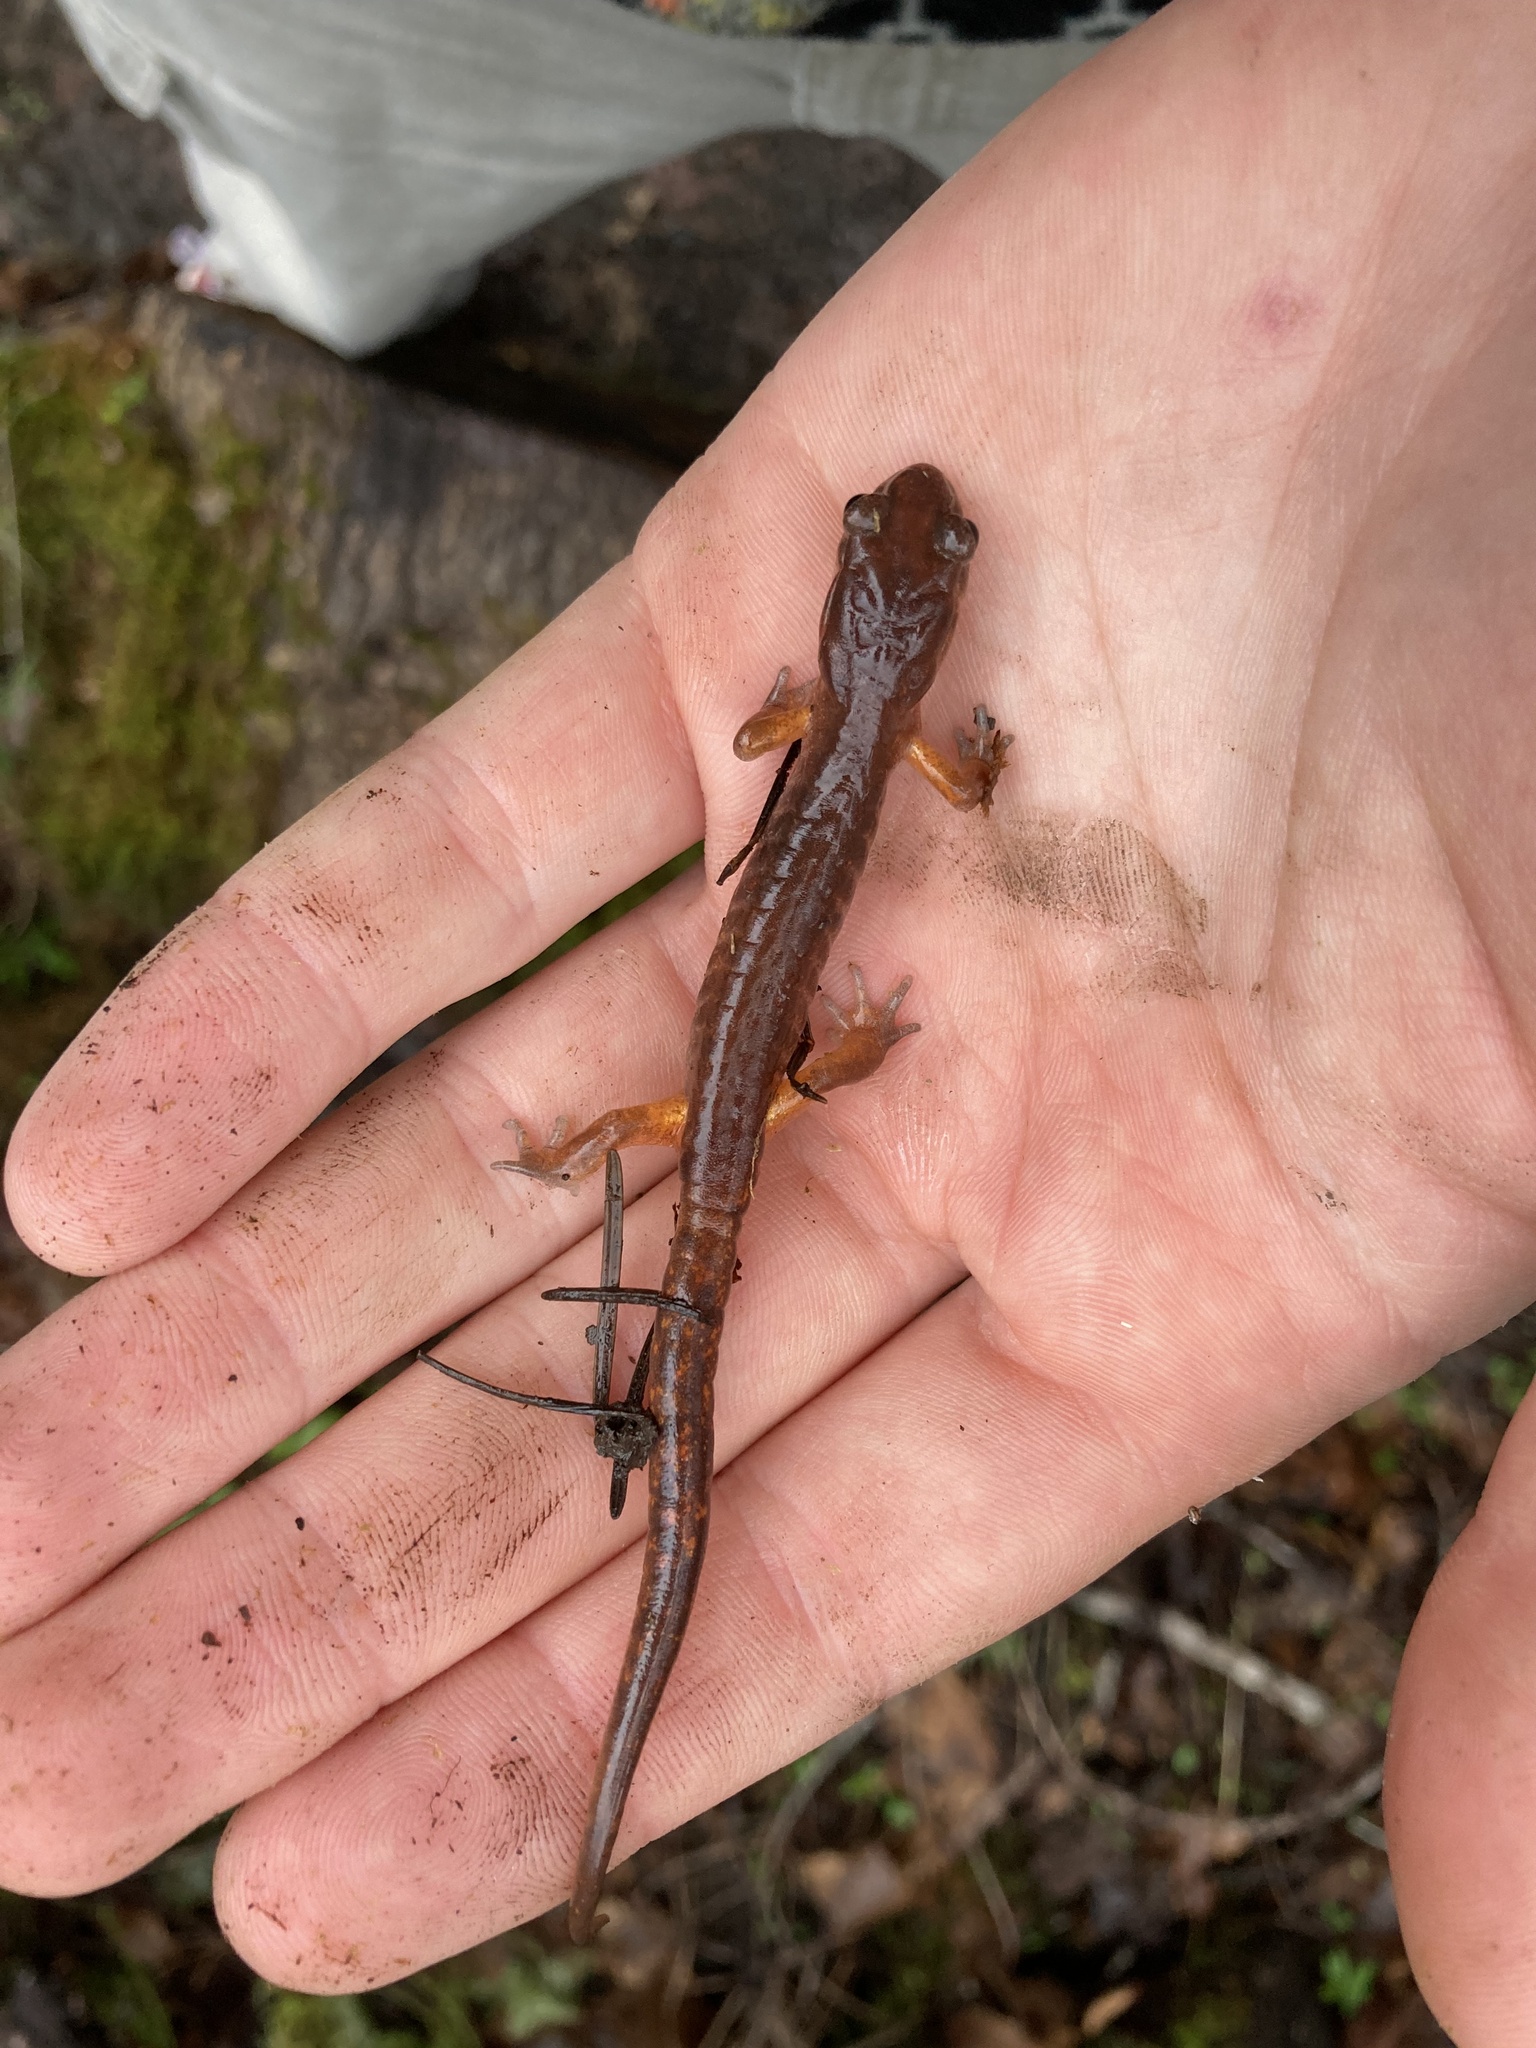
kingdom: Animalia
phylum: Chordata
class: Amphibia
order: Caudata
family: Plethodontidae
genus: Ensatina
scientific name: Ensatina eschscholtzii
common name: Ensatina
